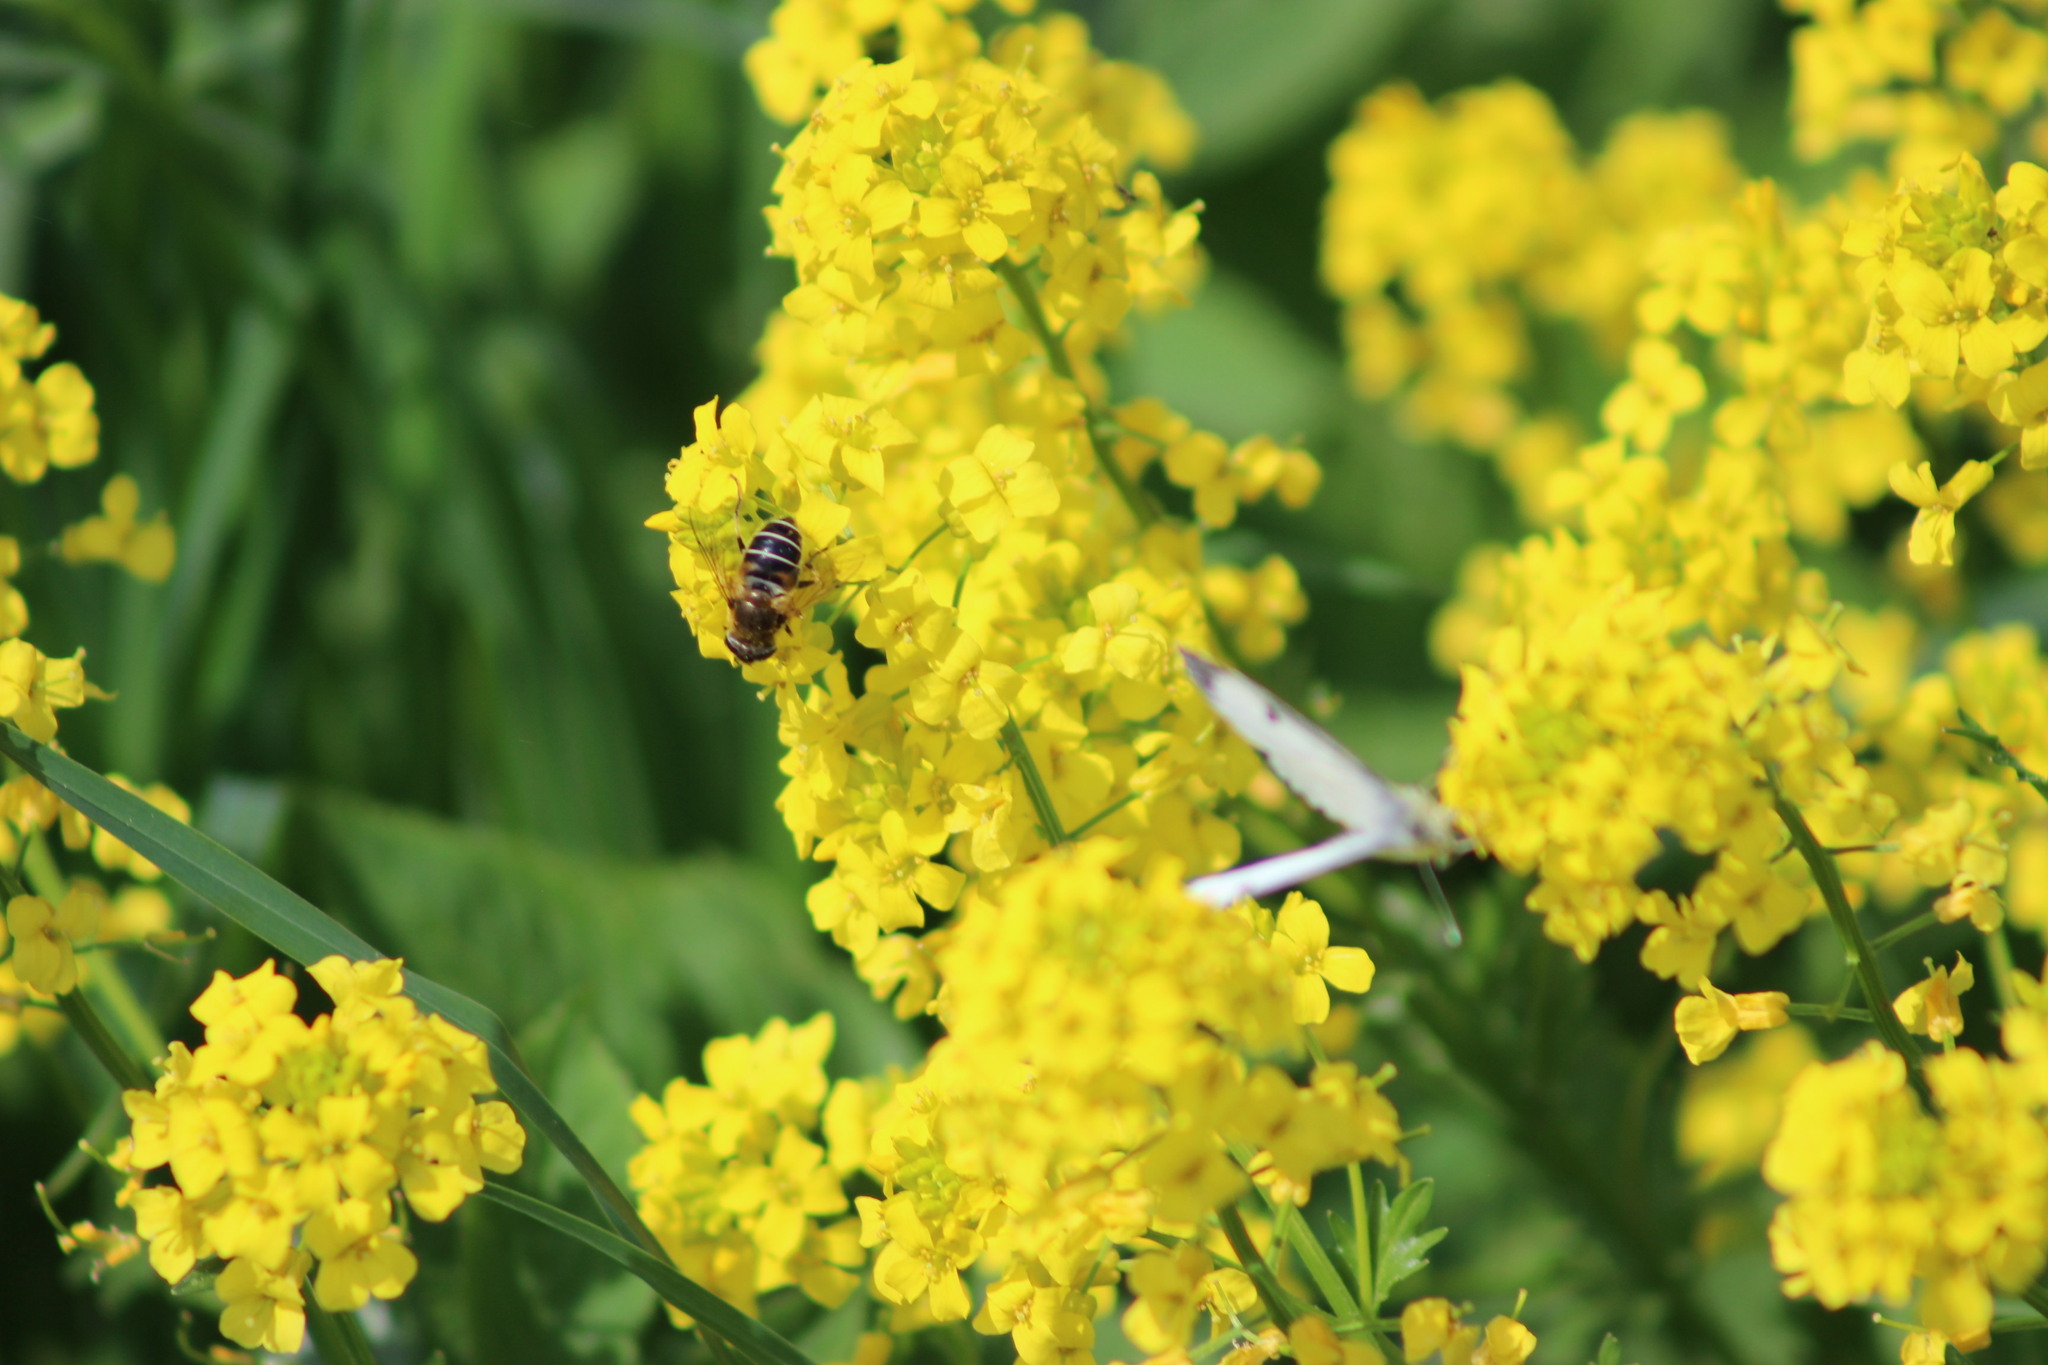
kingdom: Plantae
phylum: Tracheophyta
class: Magnoliopsida
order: Brassicales
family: Brassicaceae
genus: Barbarea
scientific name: Barbarea vulgaris
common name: Cressy-greens
